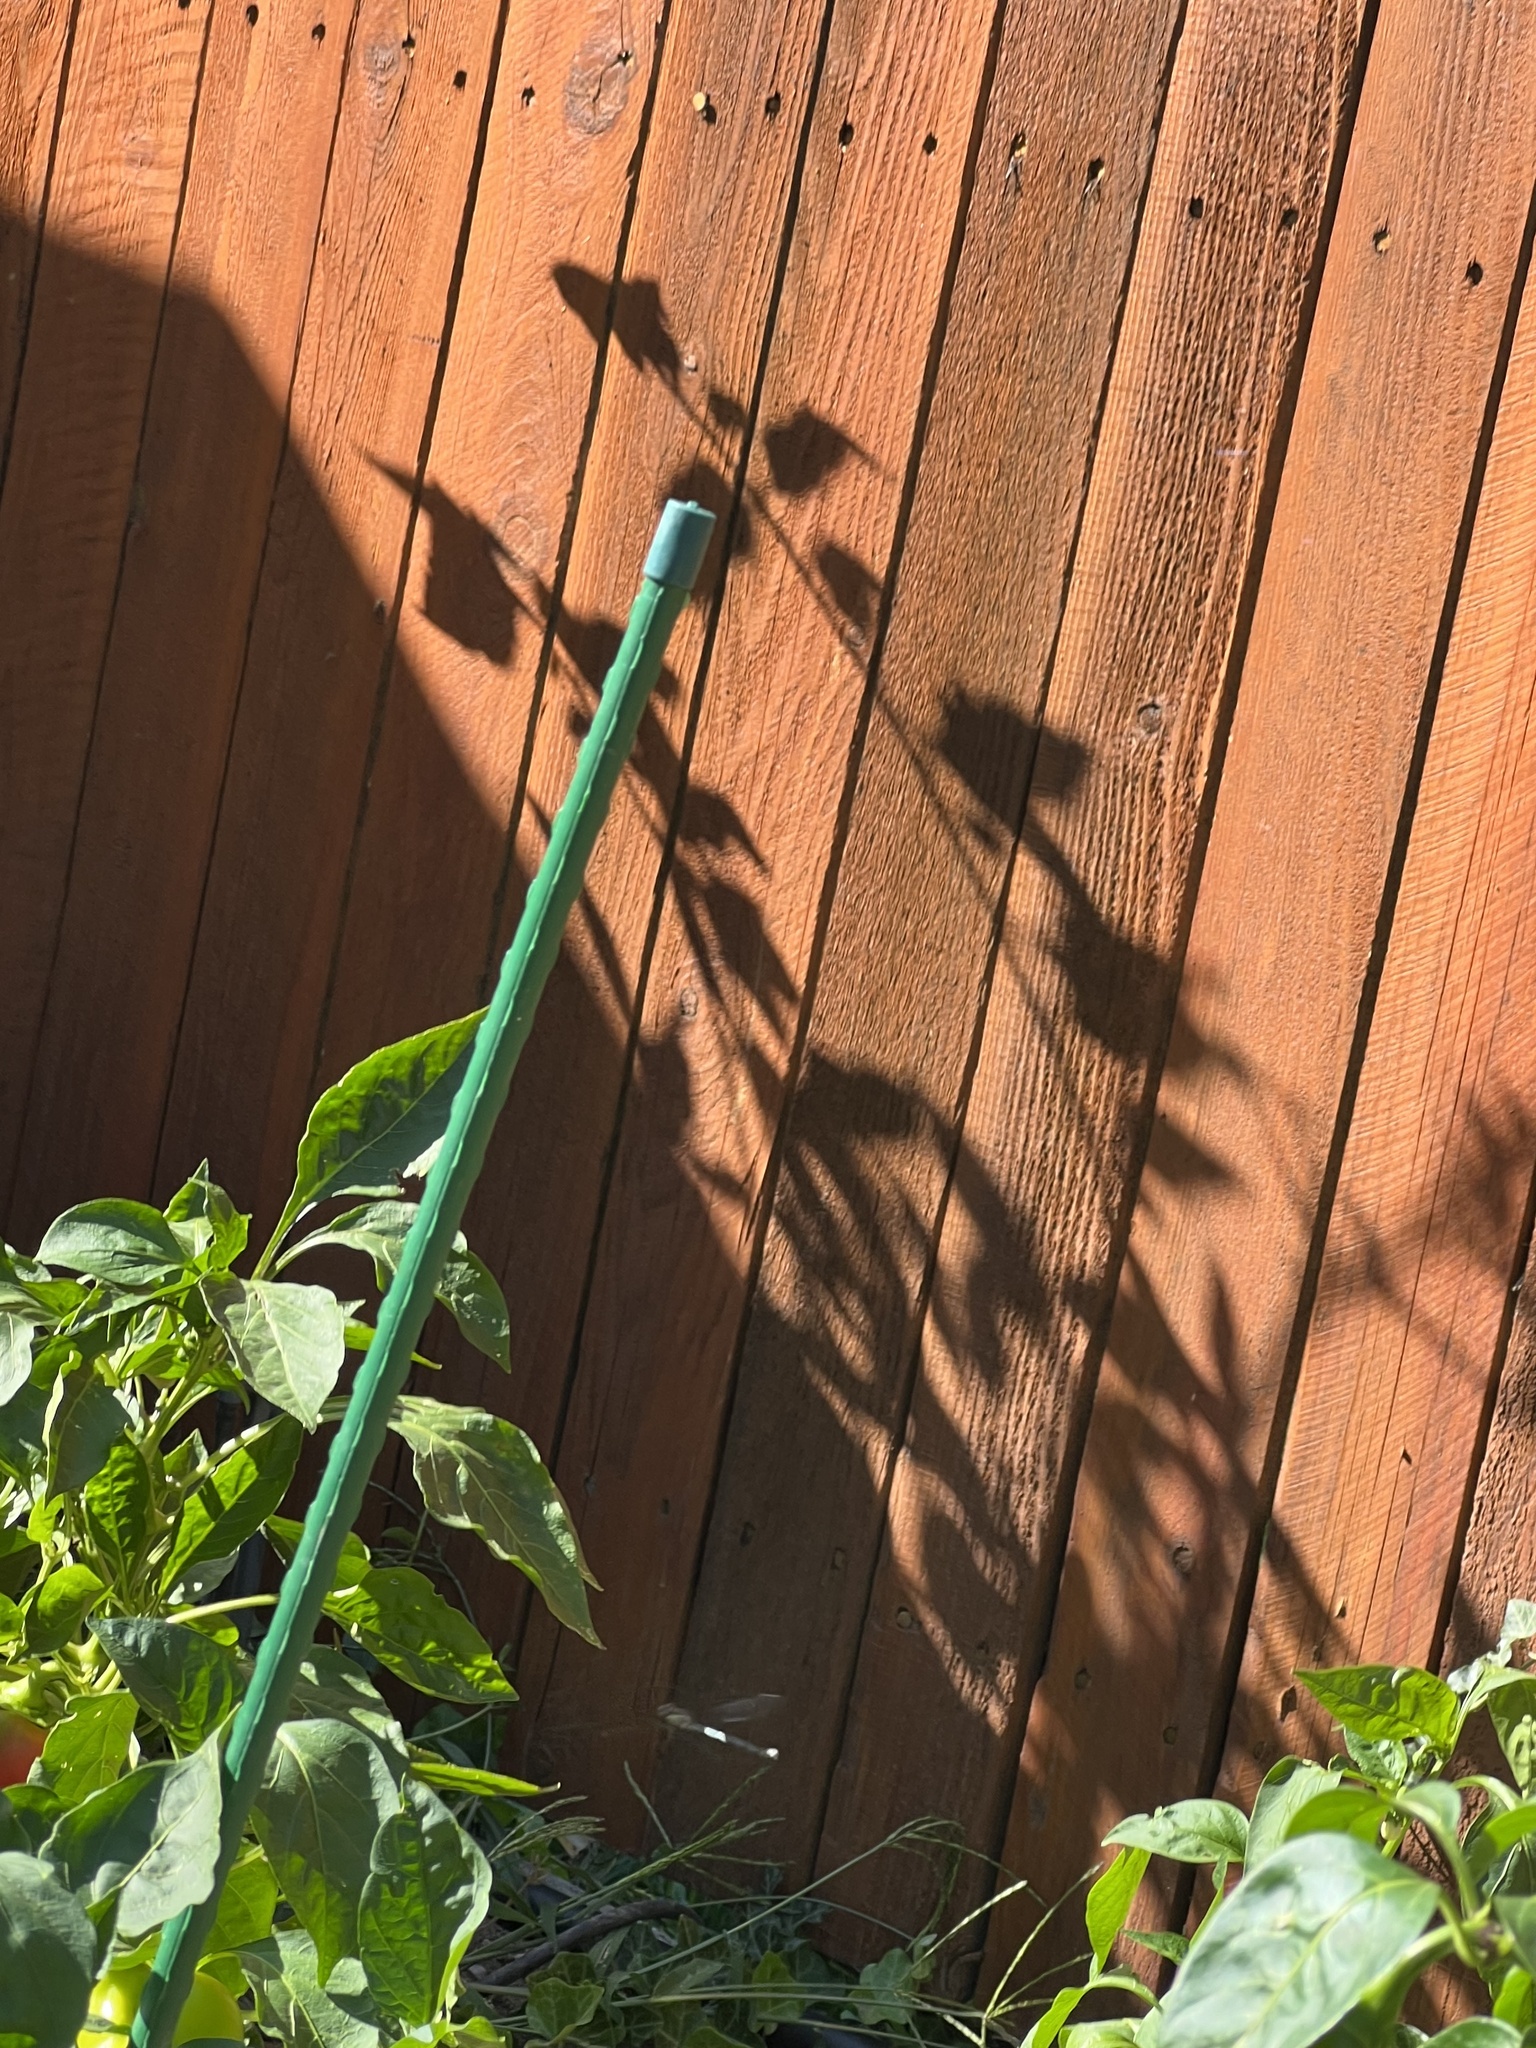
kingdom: Animalia
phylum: Arthropoda
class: Insecta
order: Odonata
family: Lestidae
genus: Archilestes
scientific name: Archilestes grandis
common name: Great spreadwing
